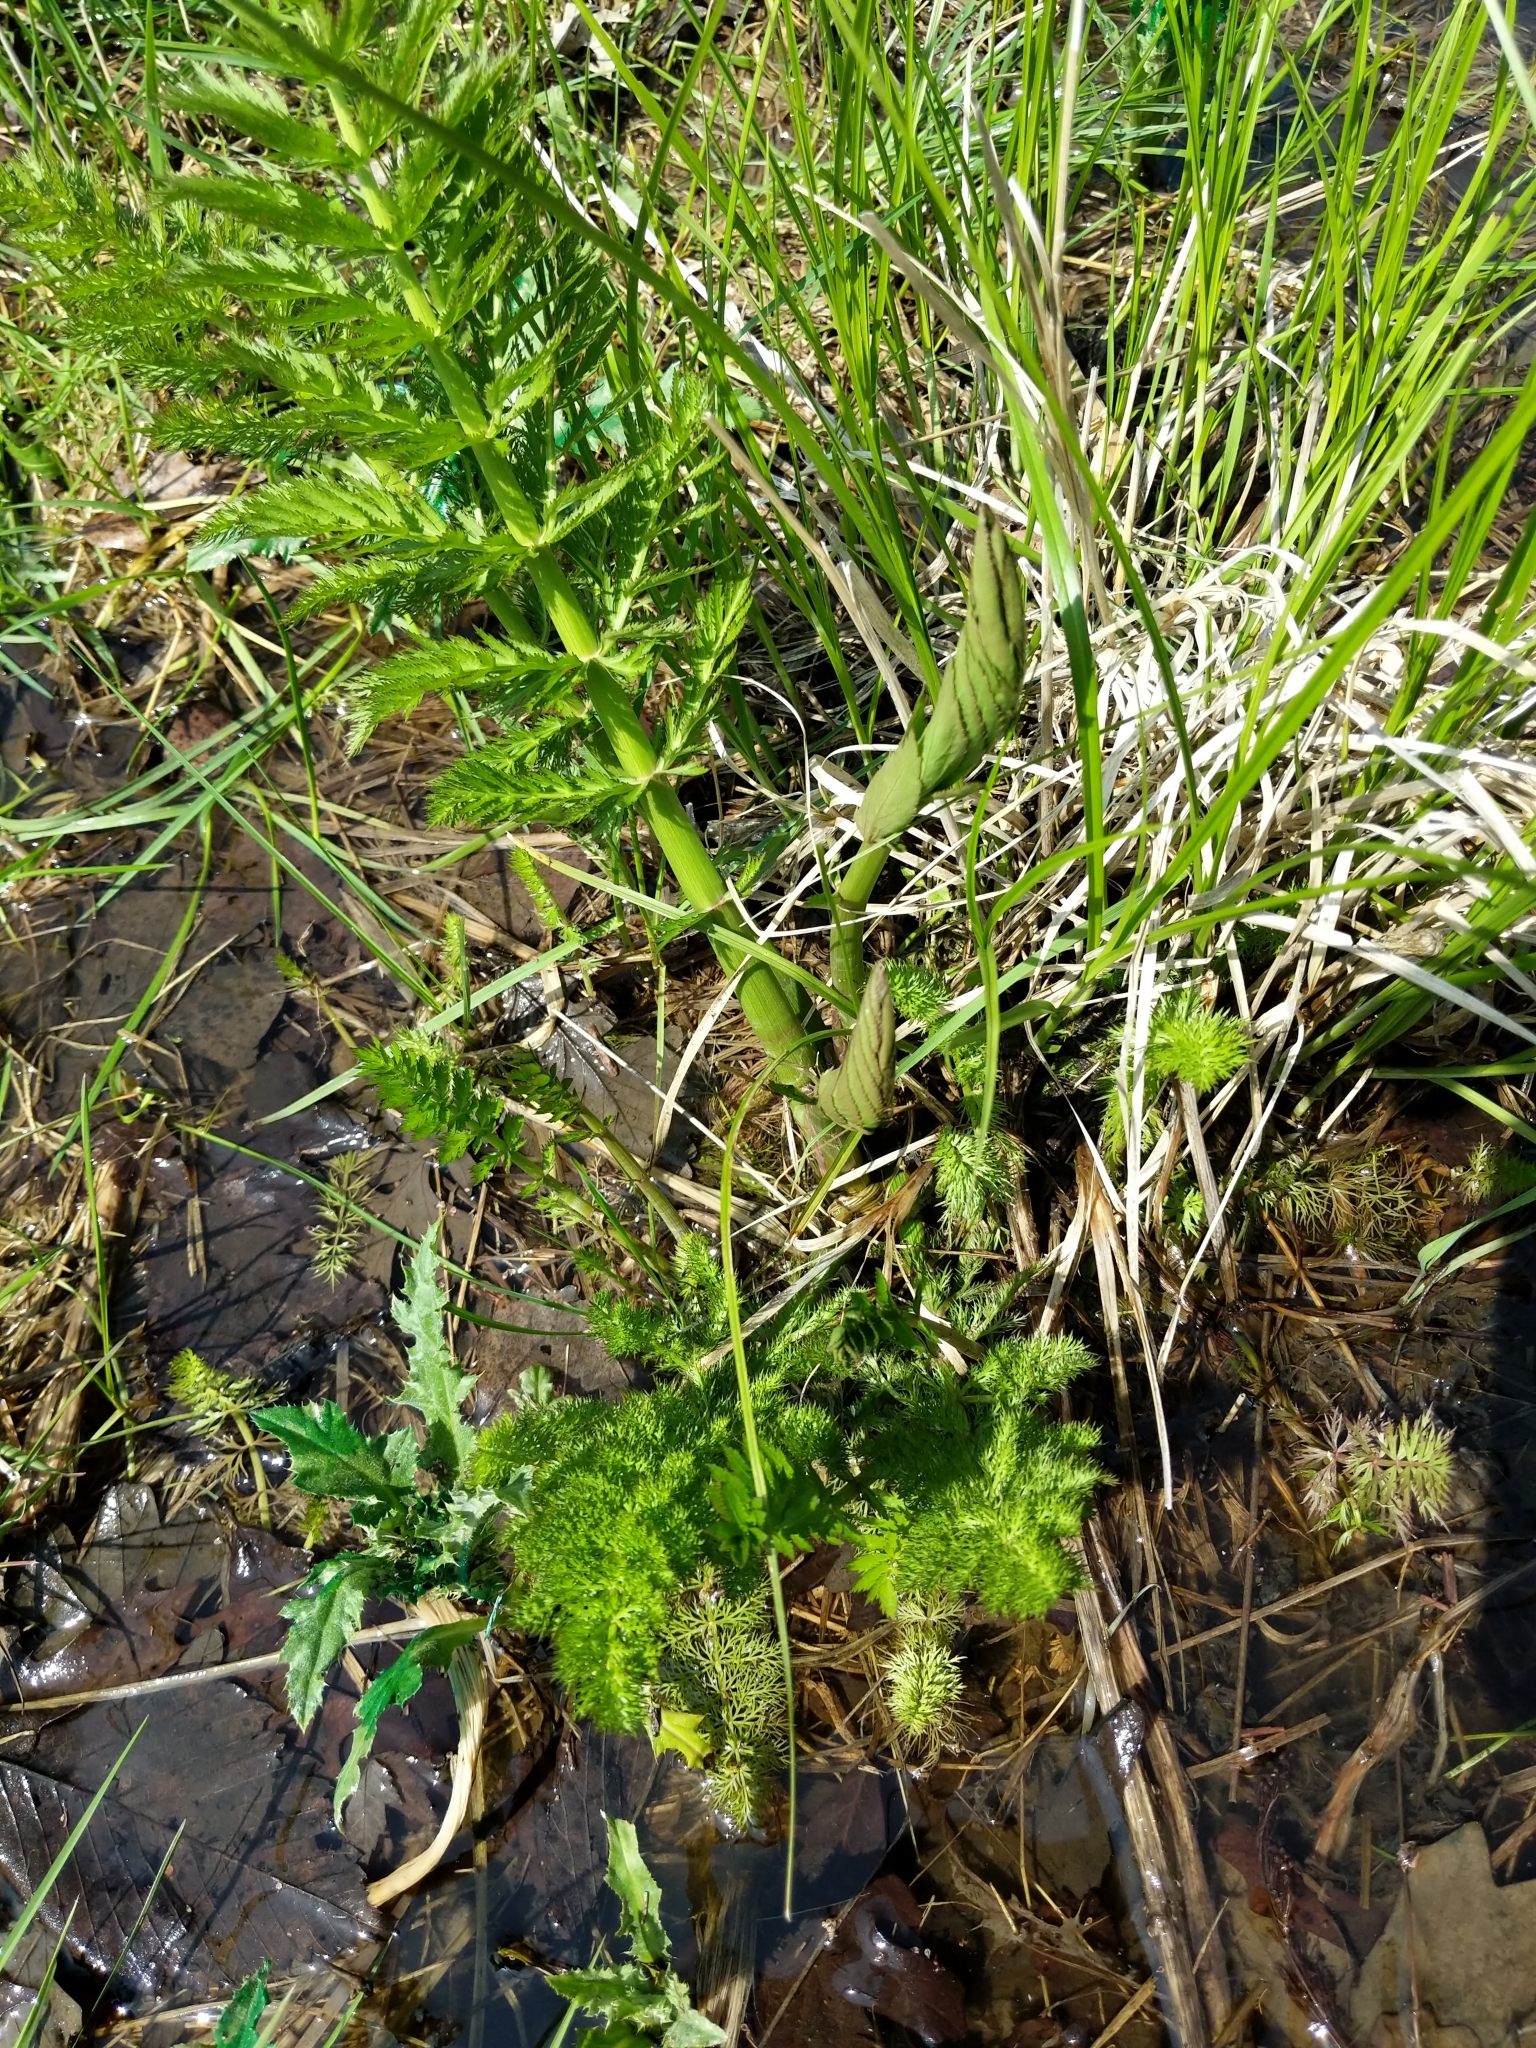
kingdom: Plantae
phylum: Tracheophyta
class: Magnoliopsida
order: Apiales
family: Apiaceae
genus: Sium
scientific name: Sium suave
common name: Hemlock water-parsnip
